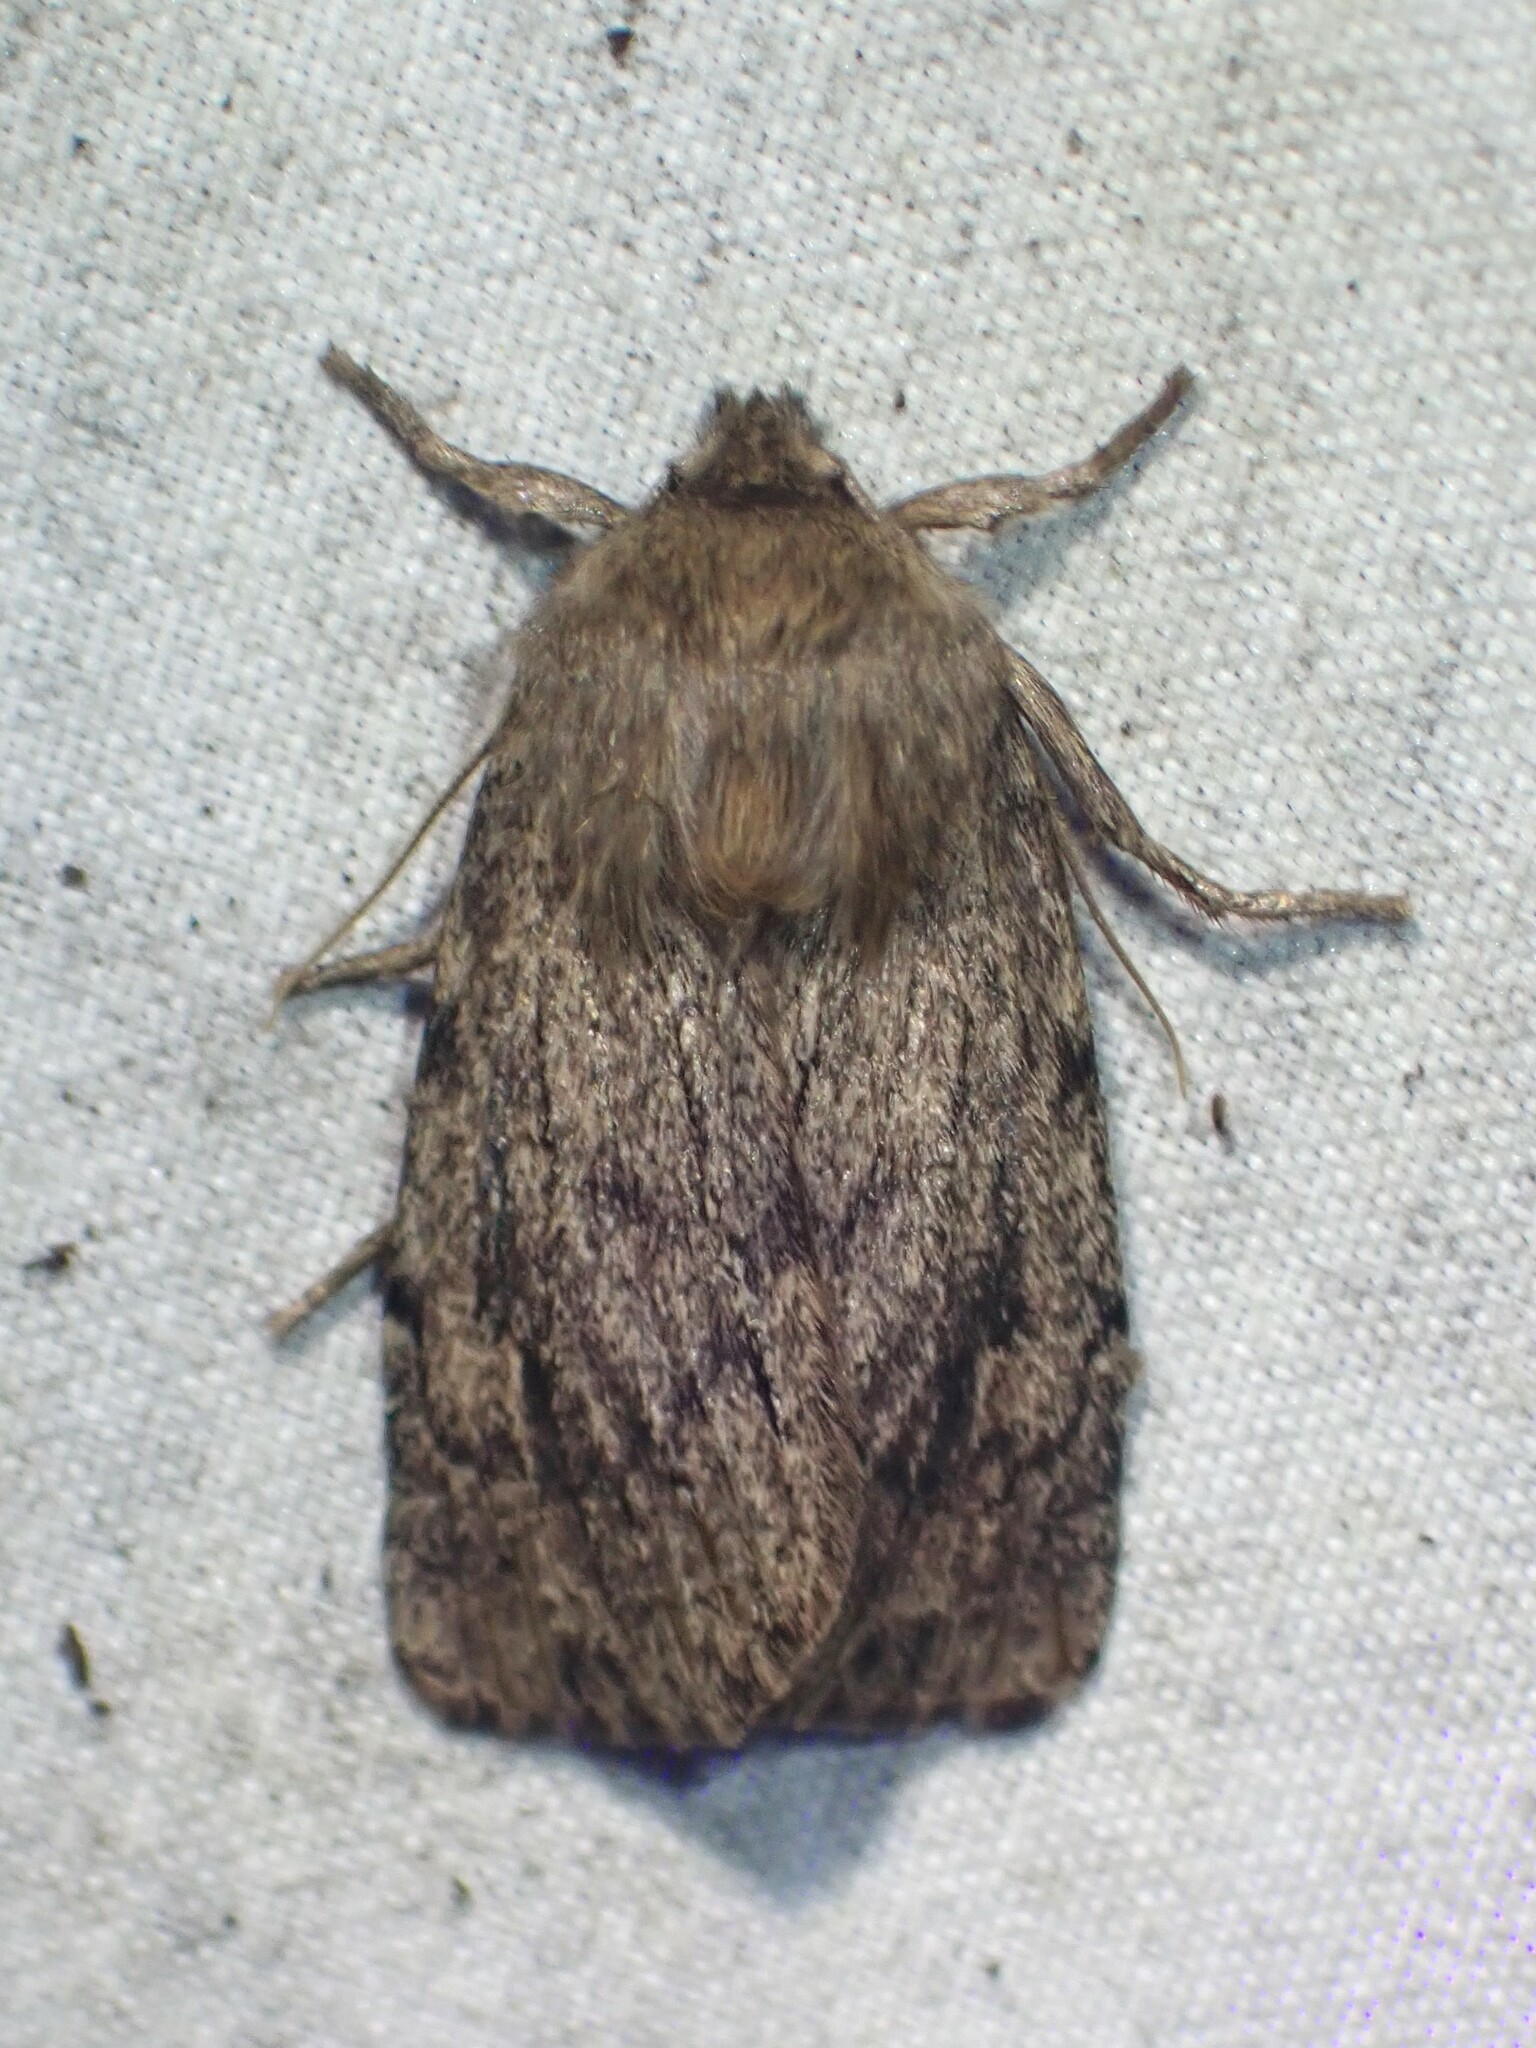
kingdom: Animalia
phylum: Arthropoda
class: Insecta
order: Lepidoptera
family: Noctuidae
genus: Ufeus
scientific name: Ufeus satyricus
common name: Brown satyr moth
